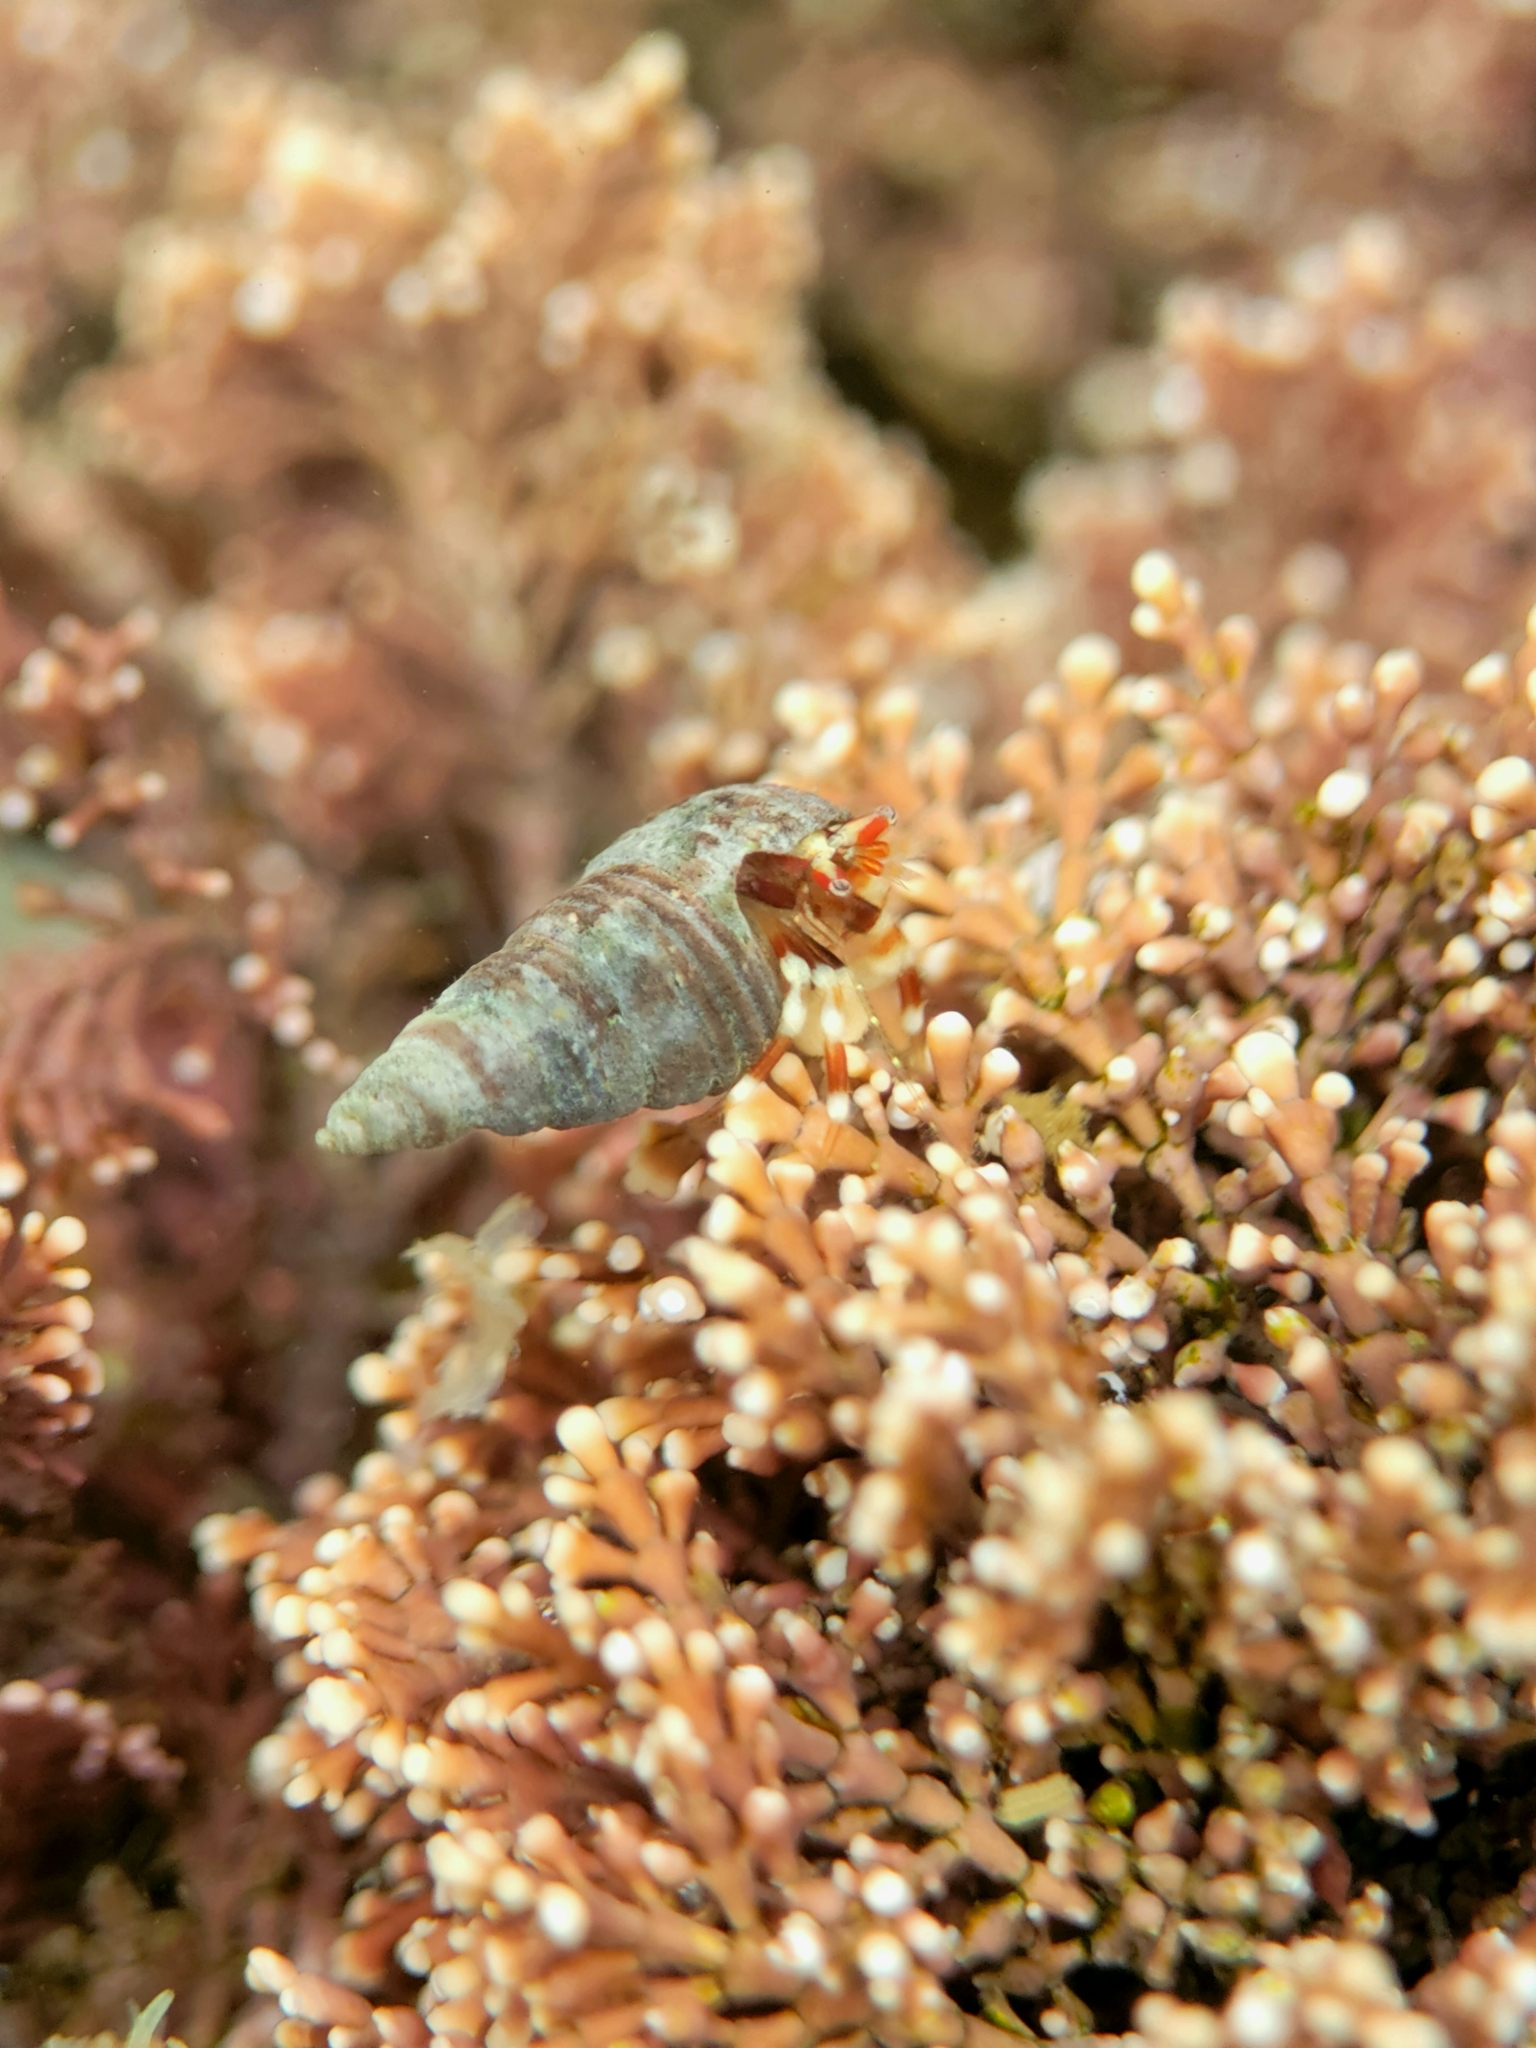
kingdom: Animalia
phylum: Mollusca
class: Gastropoda
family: Cerithiidae
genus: Neostylidium
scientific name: Neostylidium eschrichtii
